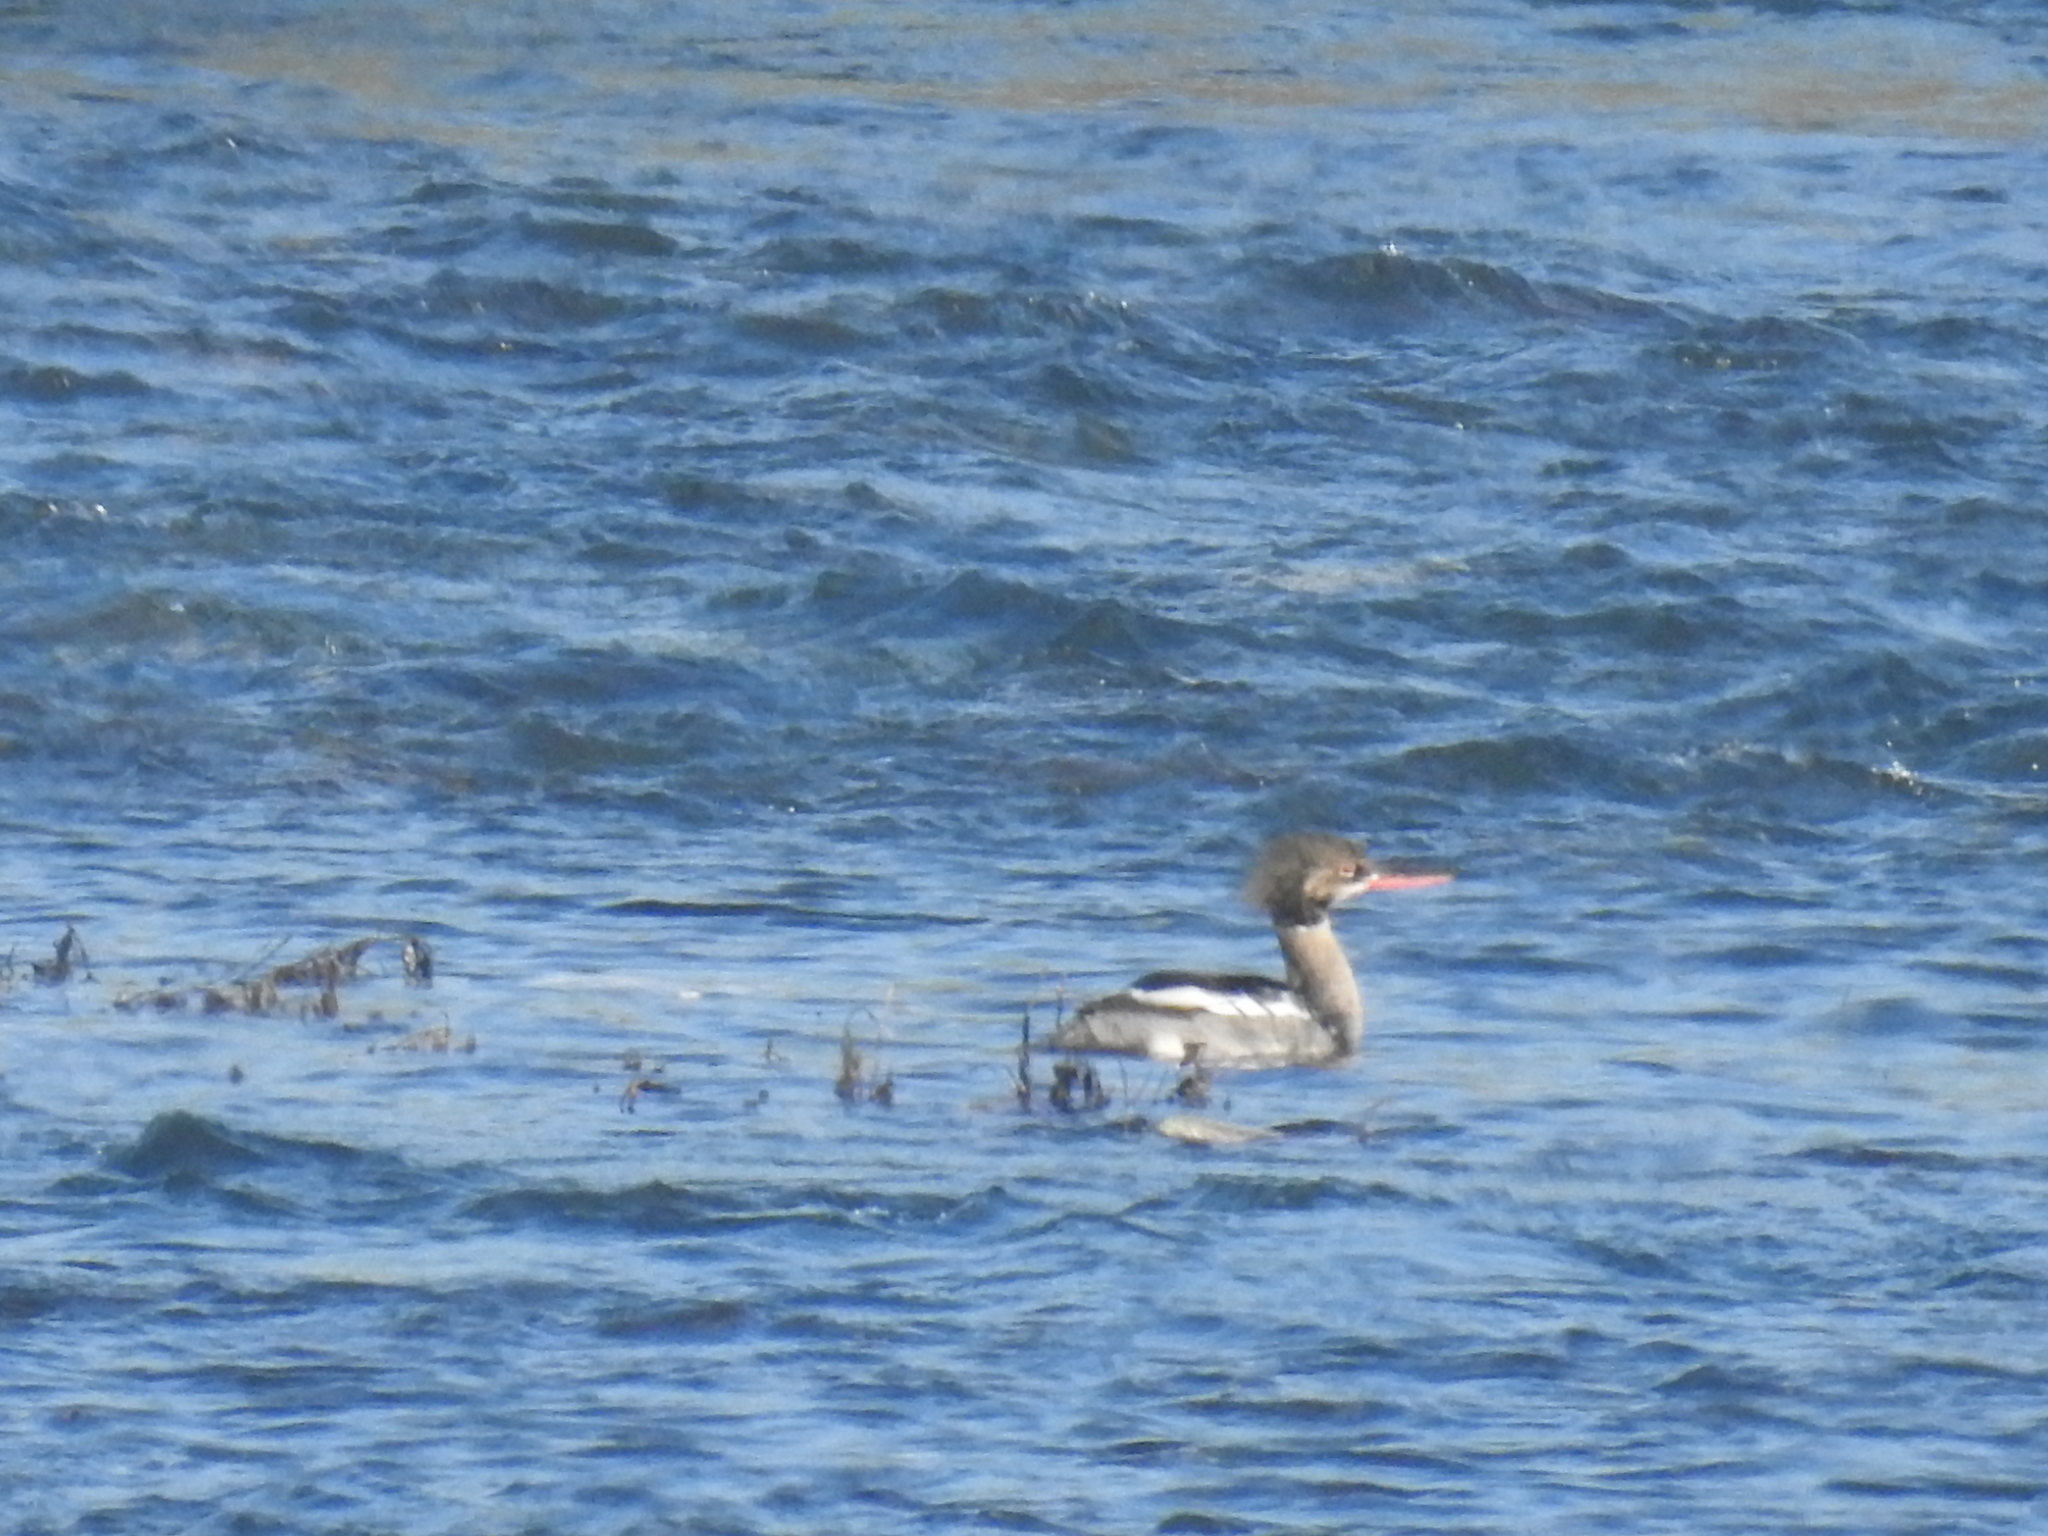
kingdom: Animalia
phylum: Chordata
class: Aves
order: Anseriformes
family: Anatidae
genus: Mergus
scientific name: Mergus serrator
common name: Red-breasted merganser
